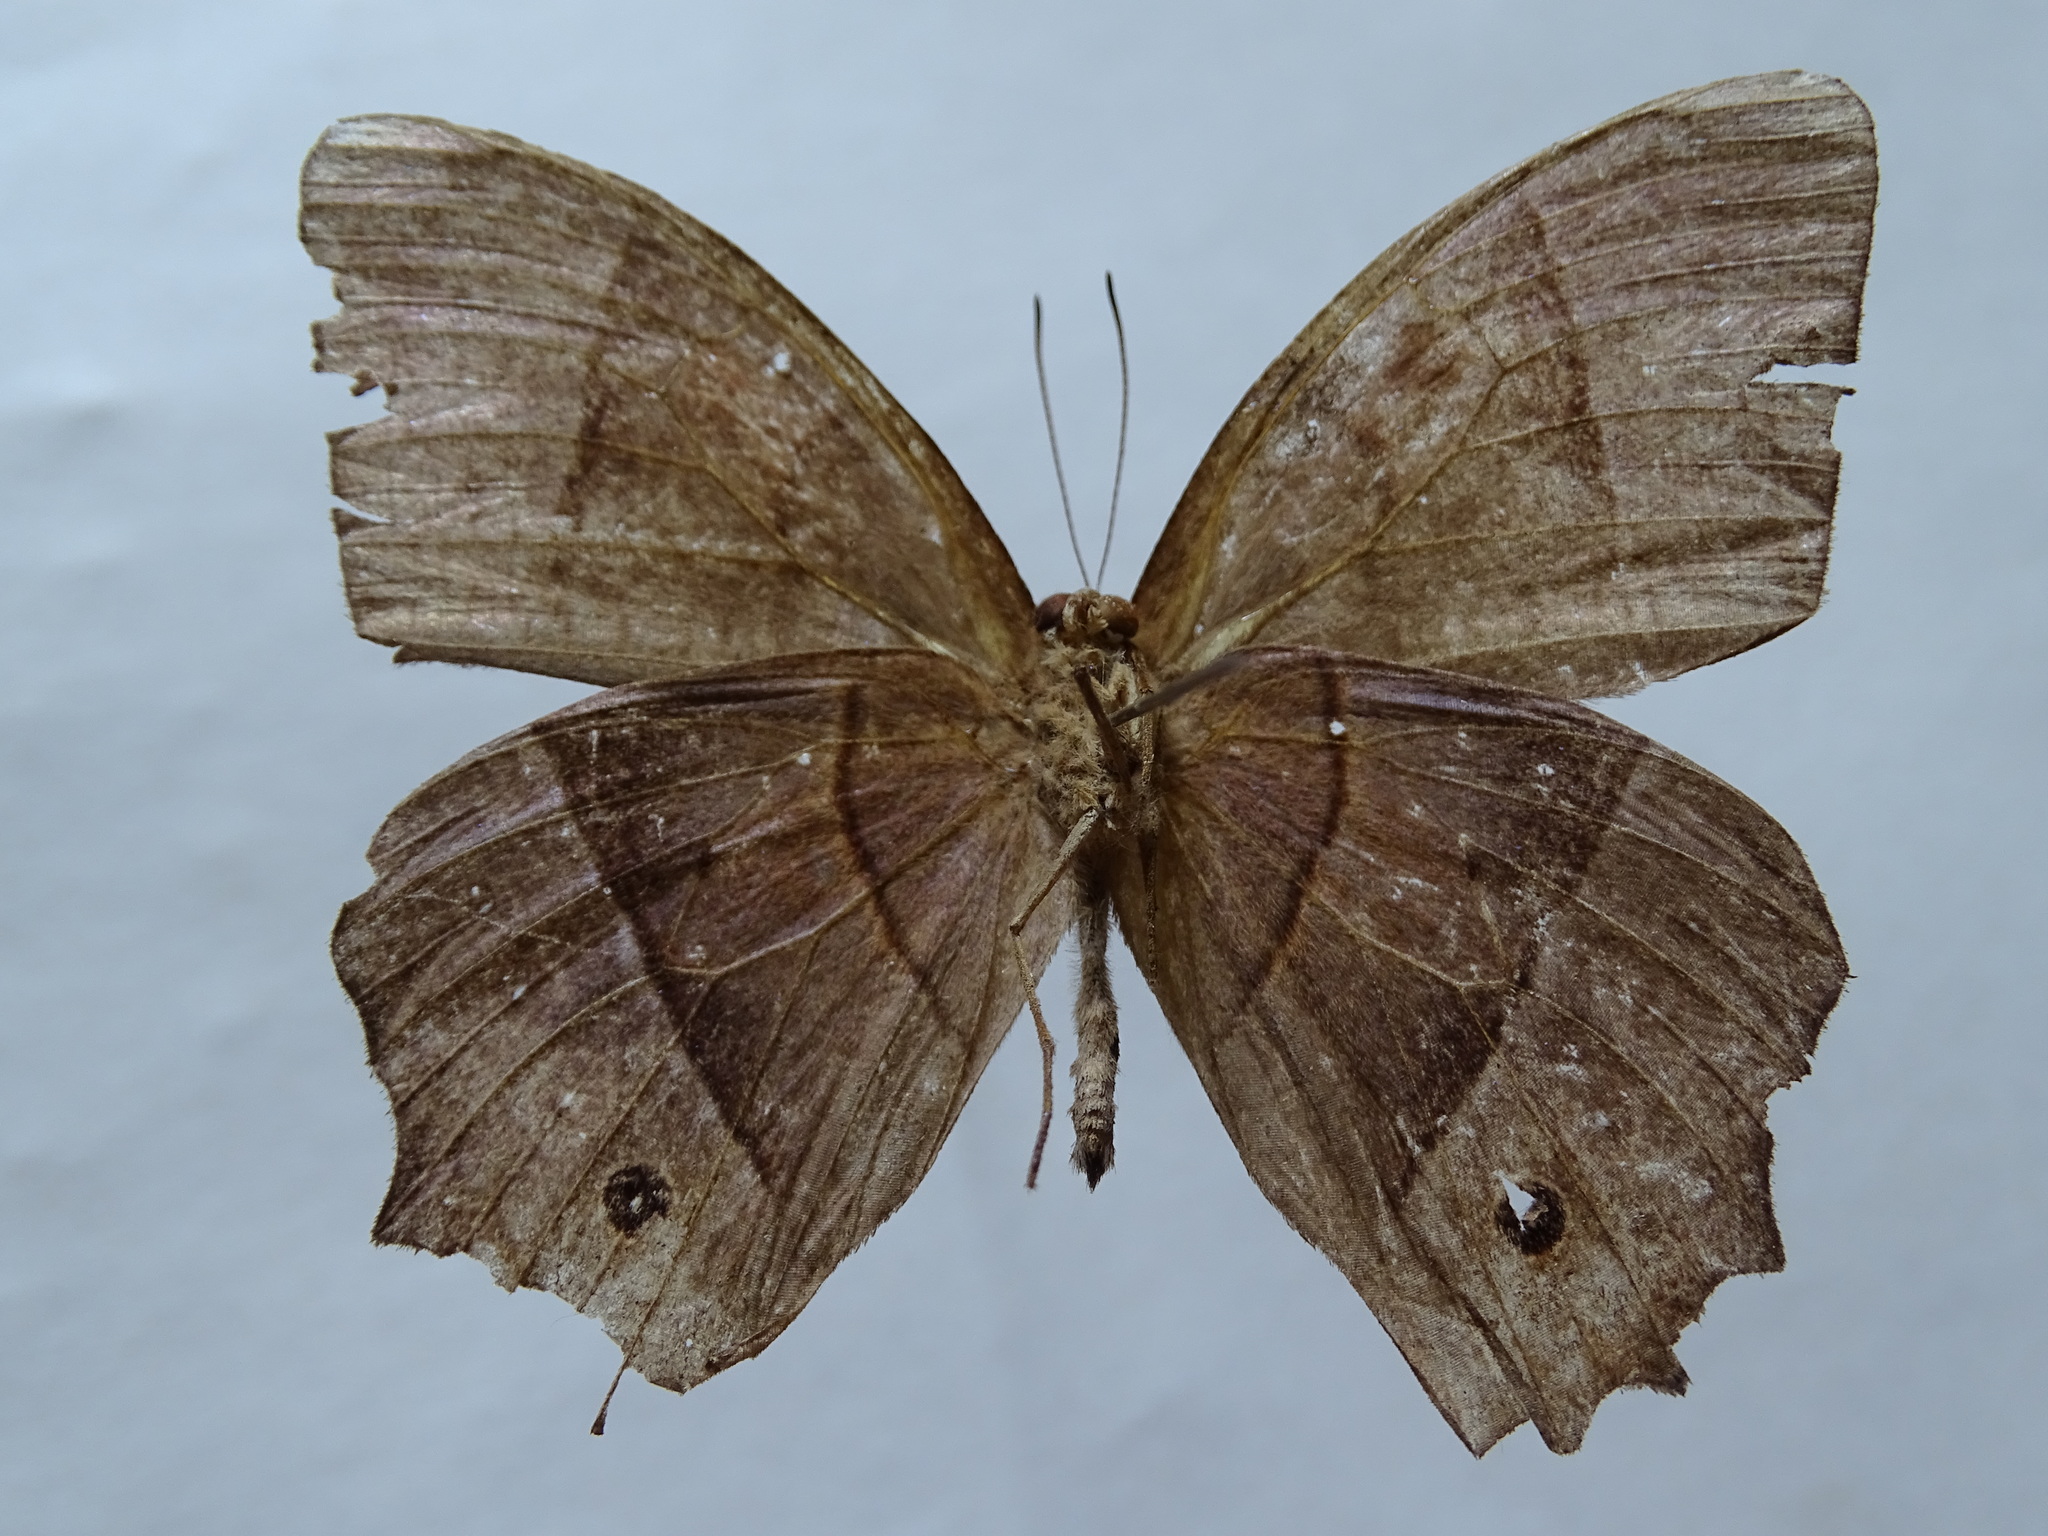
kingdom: Animalia
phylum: Arthropoda
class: Insecta
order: Lepidoptera
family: Nymphalidae
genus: Taygetis
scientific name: Taygetis salvini
